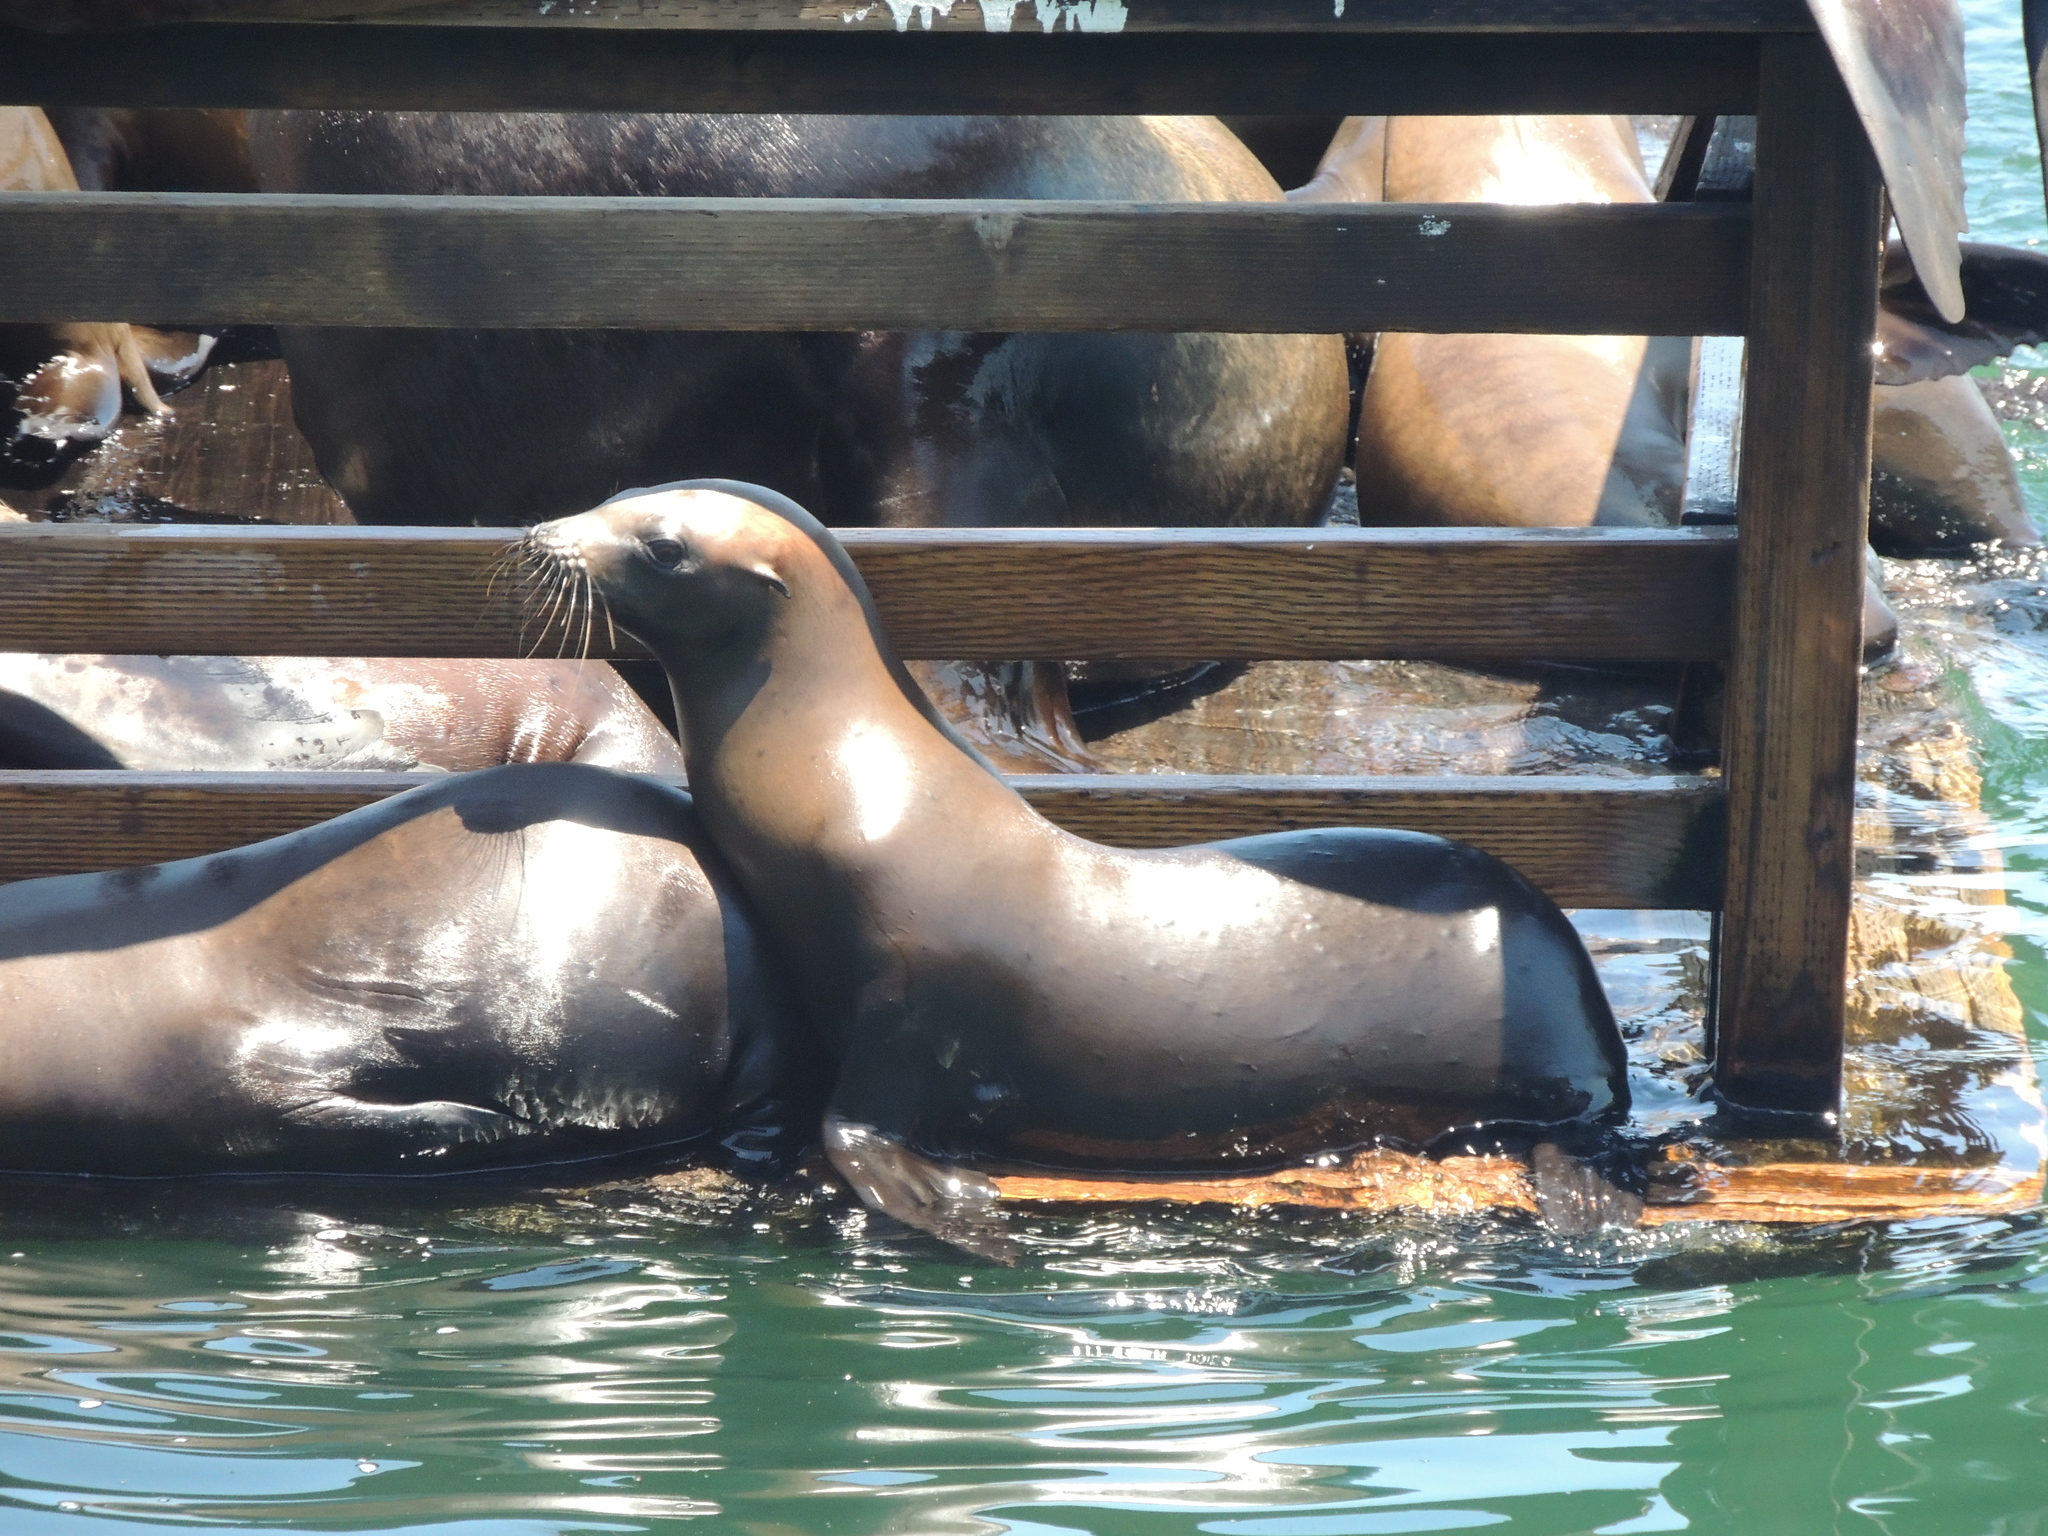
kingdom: Animalia
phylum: Chordata
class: Mammalia
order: Carnivora
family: Otariidae
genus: Zalophus
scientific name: Zalophus californianus
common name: California sea lion
